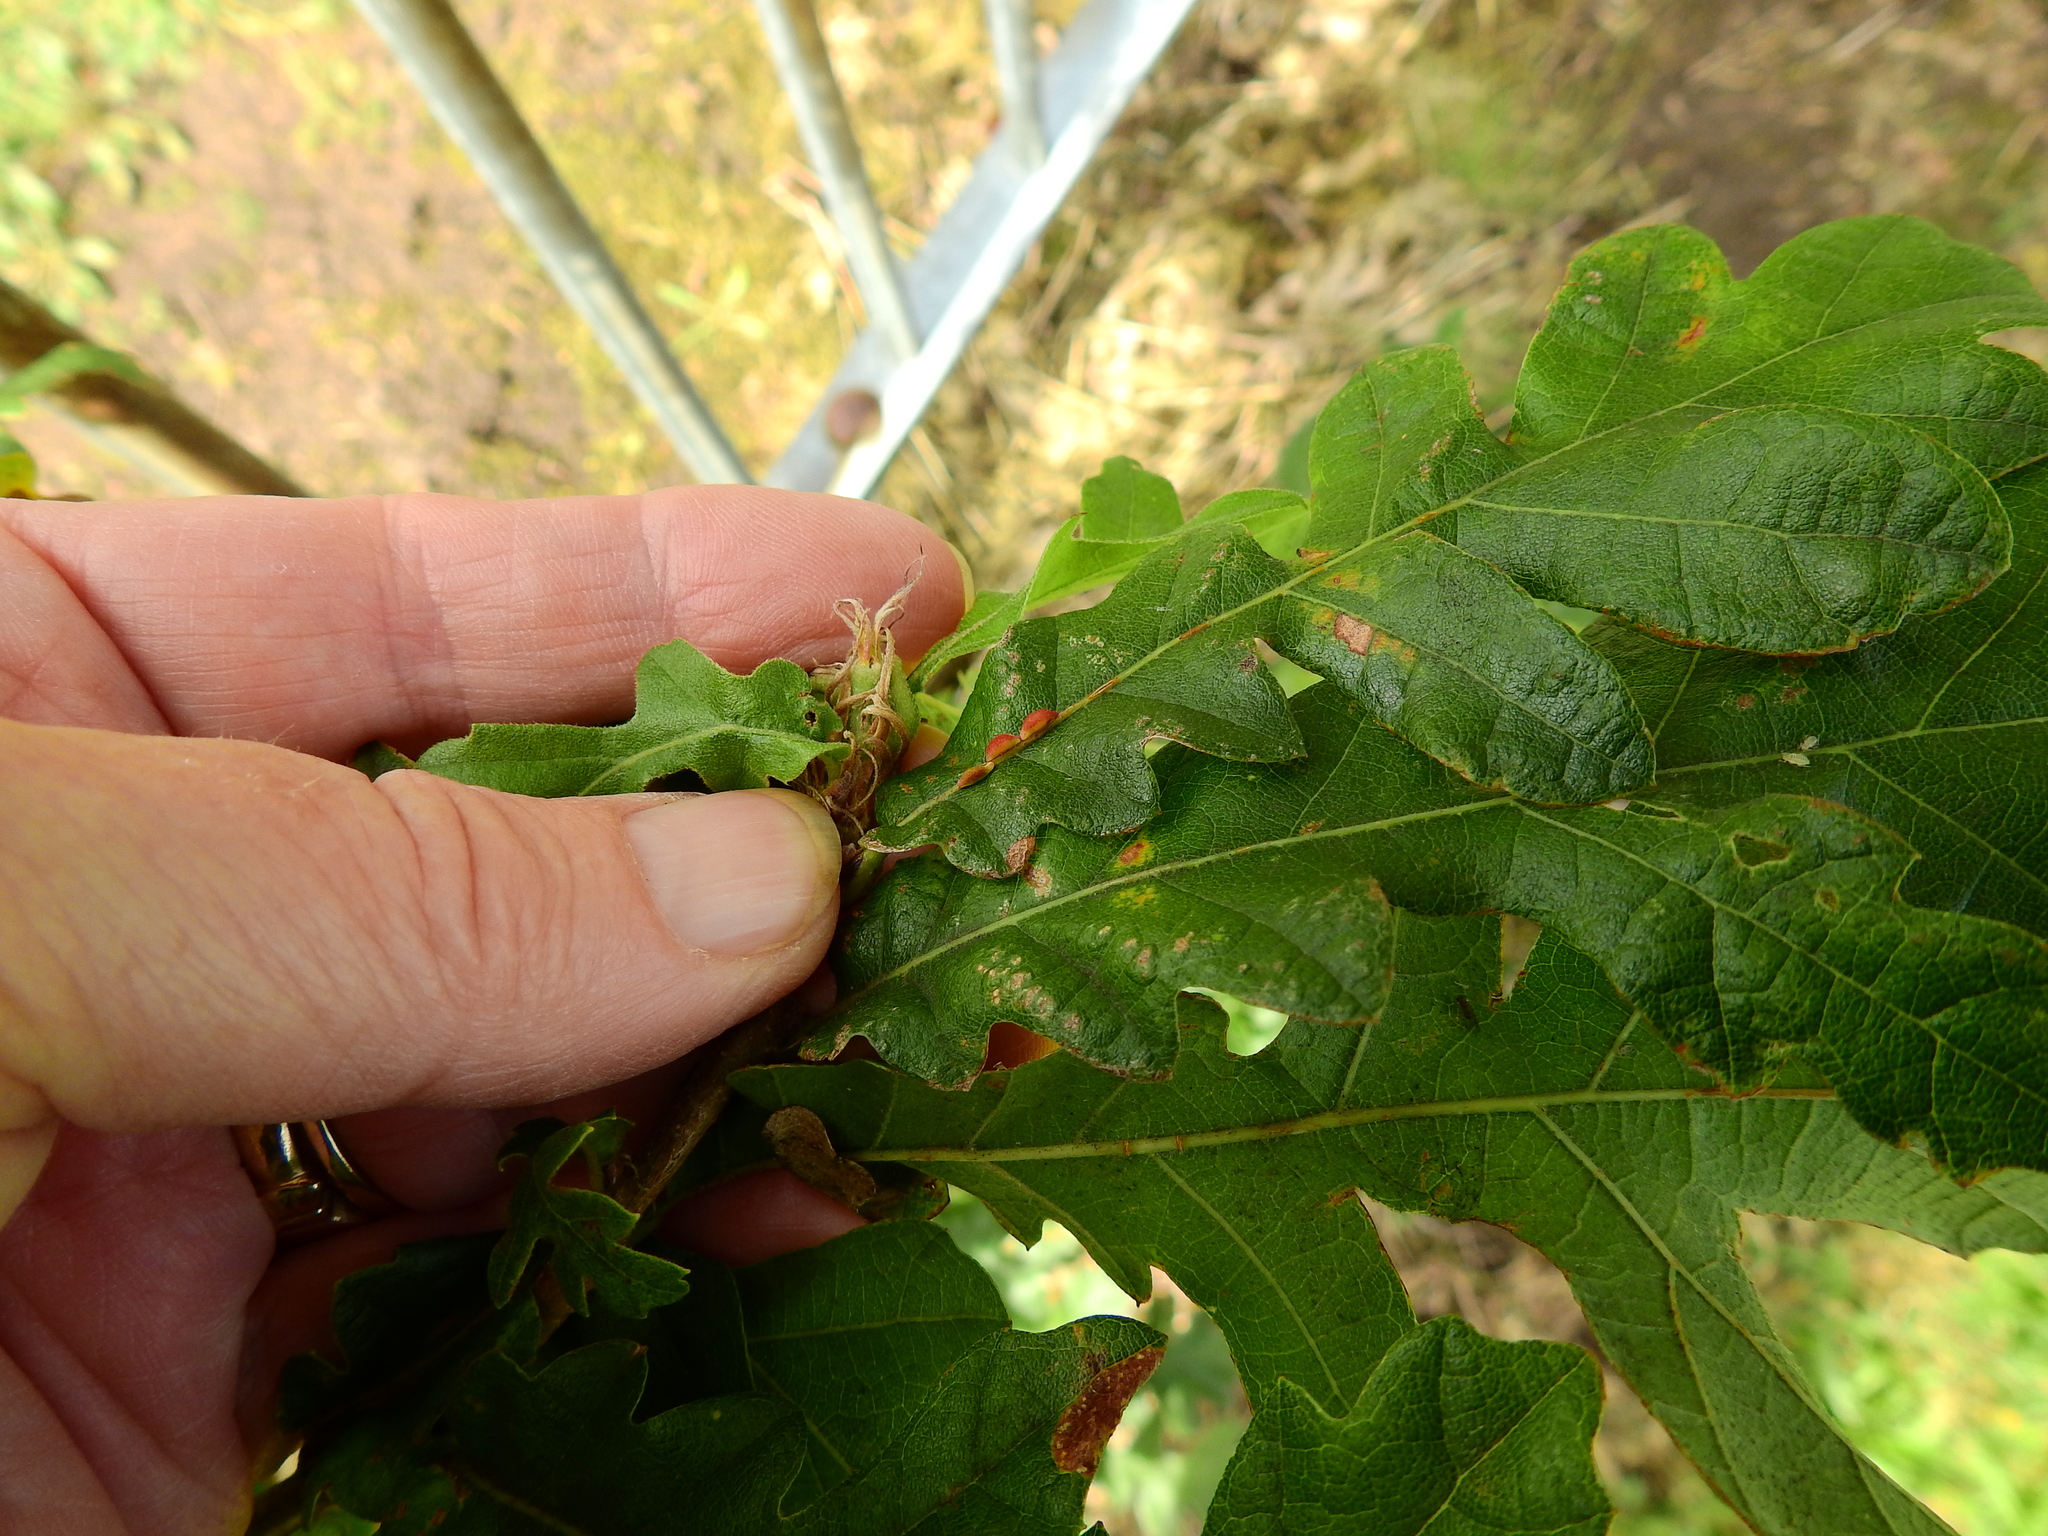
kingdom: Animalia
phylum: Arthropoda
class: Insecta
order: Hymenoptera
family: Cynipidae
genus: Neuroterus
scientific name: Neuroterus saliens
